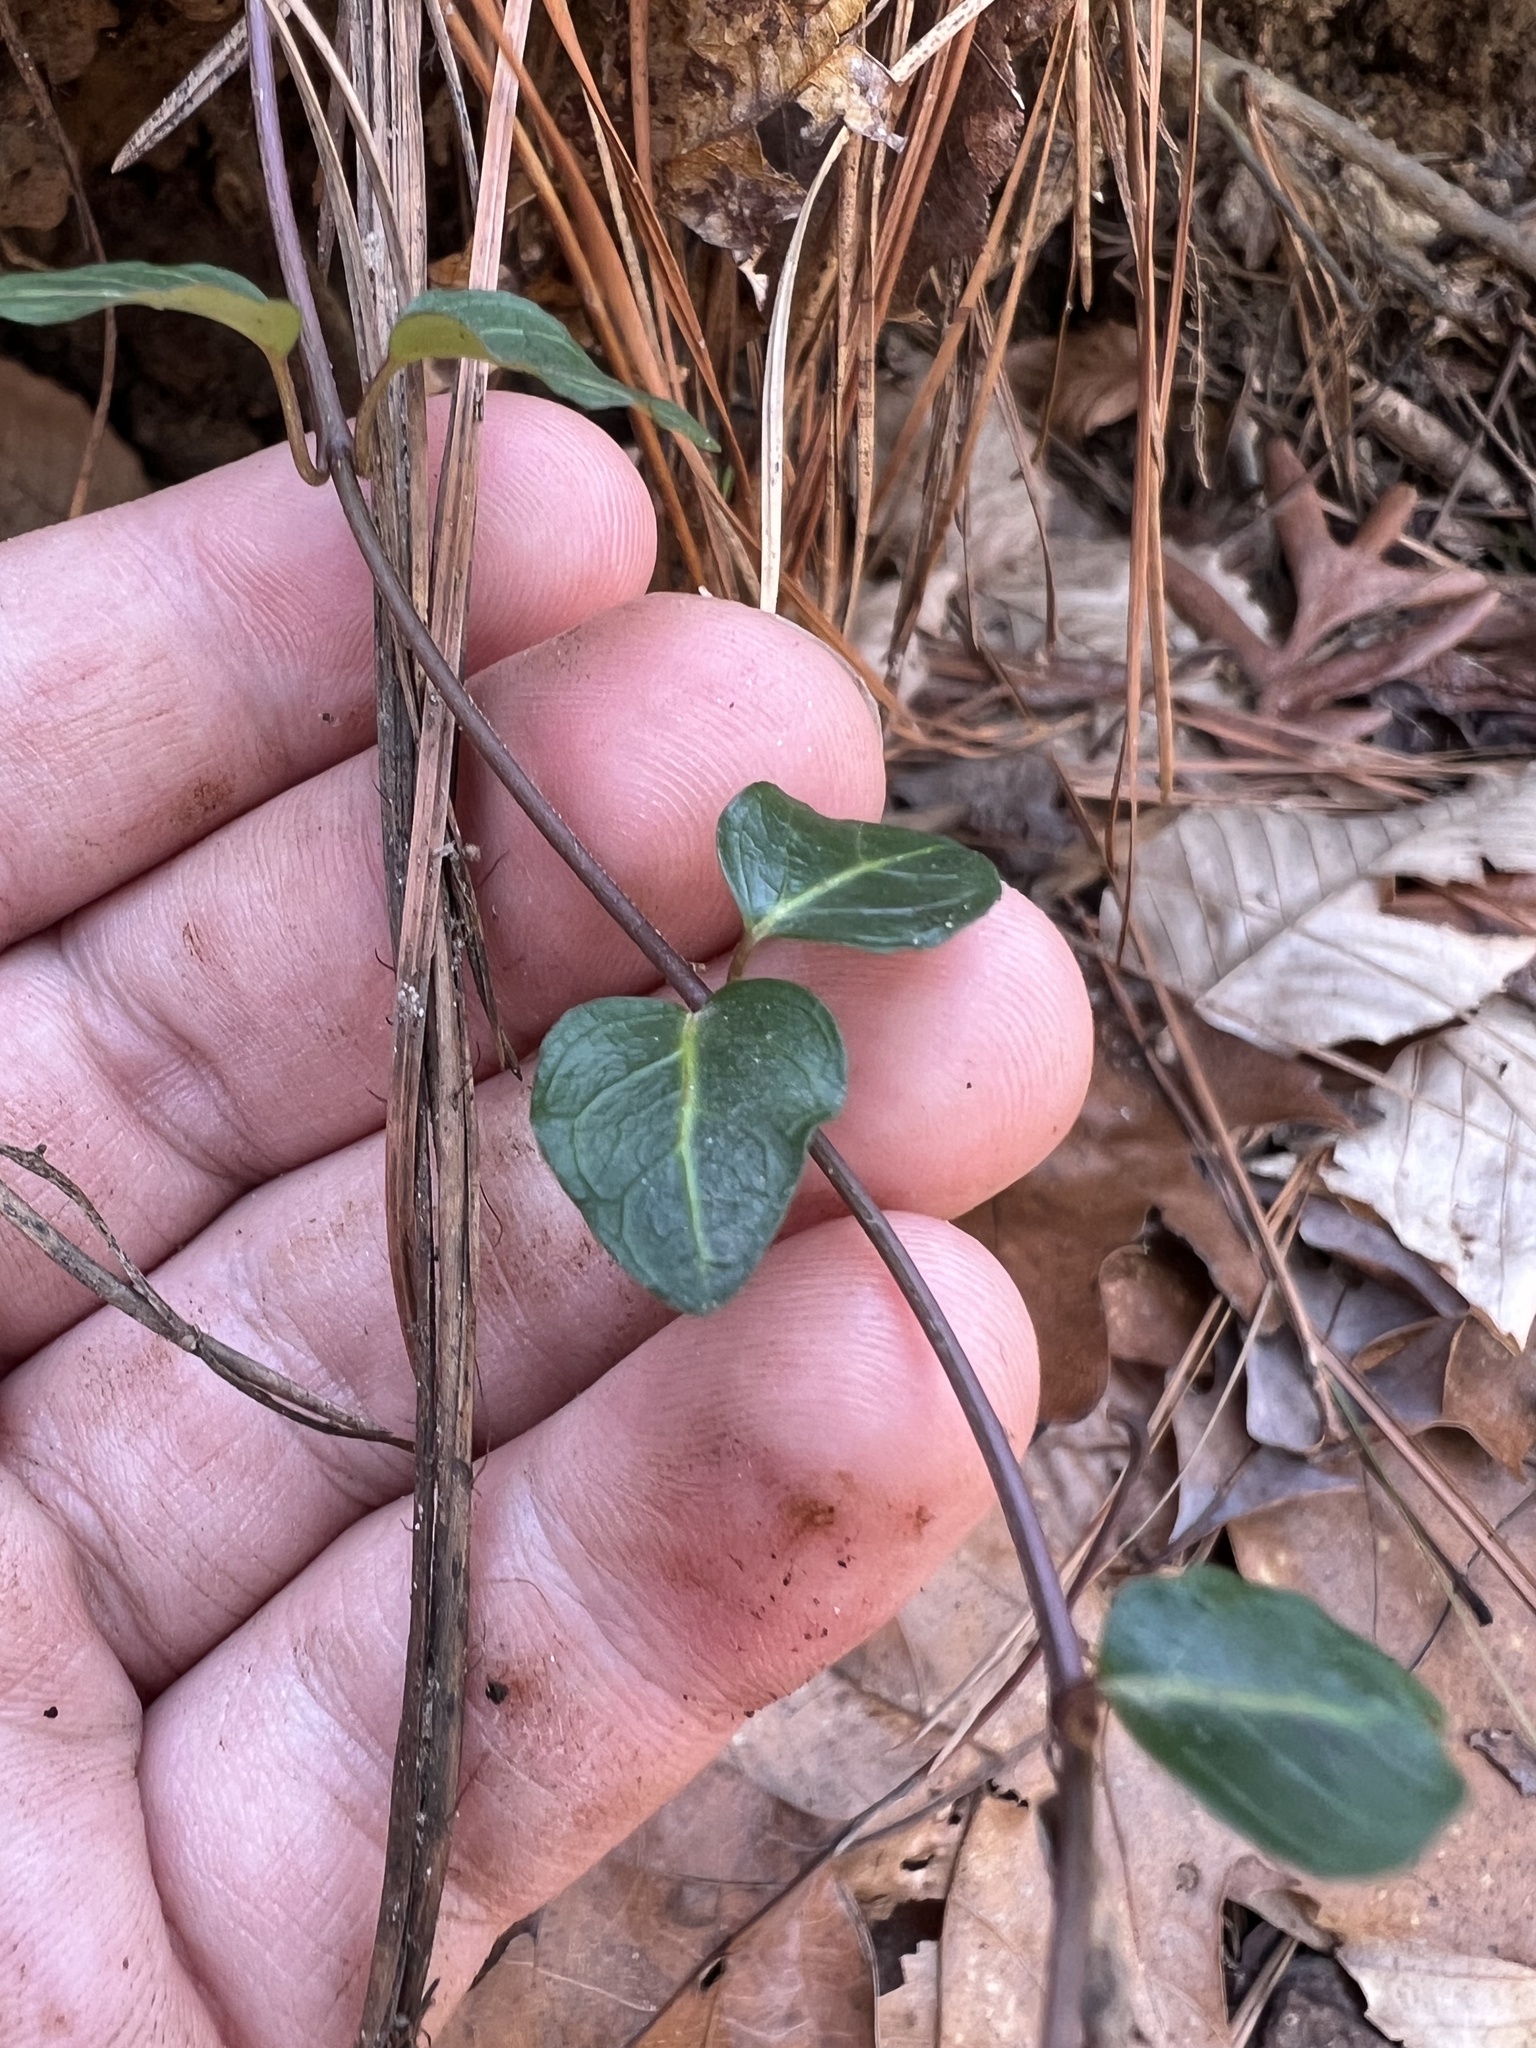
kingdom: Plantae
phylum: Tracheophyta
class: Magnoliopsida
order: Gentianales
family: Rubiaceae
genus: Mitchella
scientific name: Mitchella repens
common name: Partridge-berry
